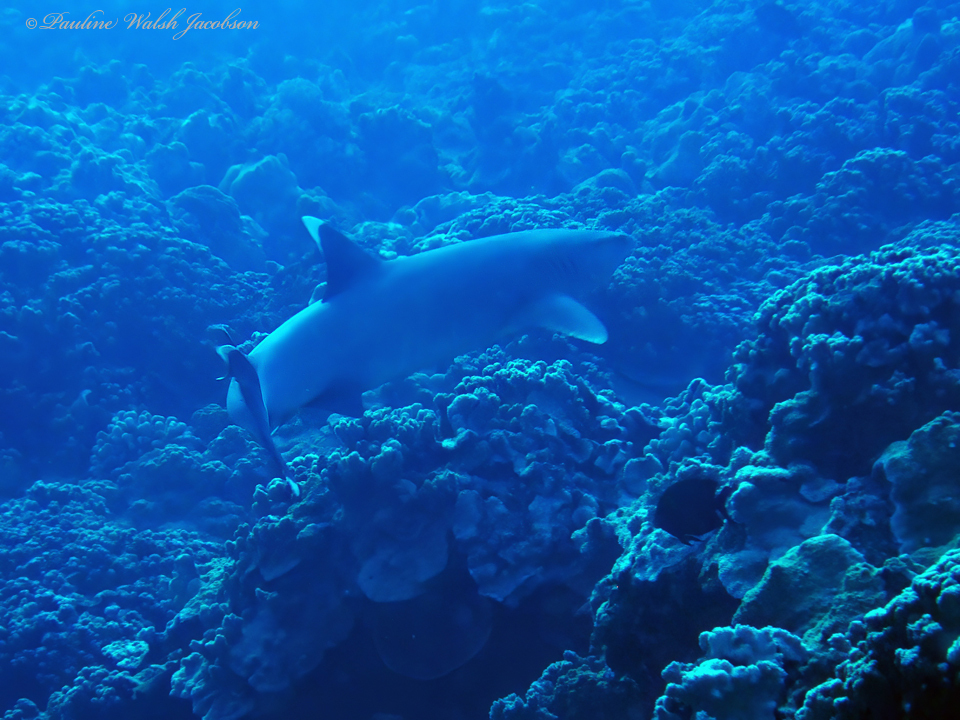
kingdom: Animalia
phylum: Chordata
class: Elasmobranchii
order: Carcharhiniformes
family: Carcharhinidae
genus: Triaenodon
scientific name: Triaenodon obesus
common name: Whitetip reef shark
